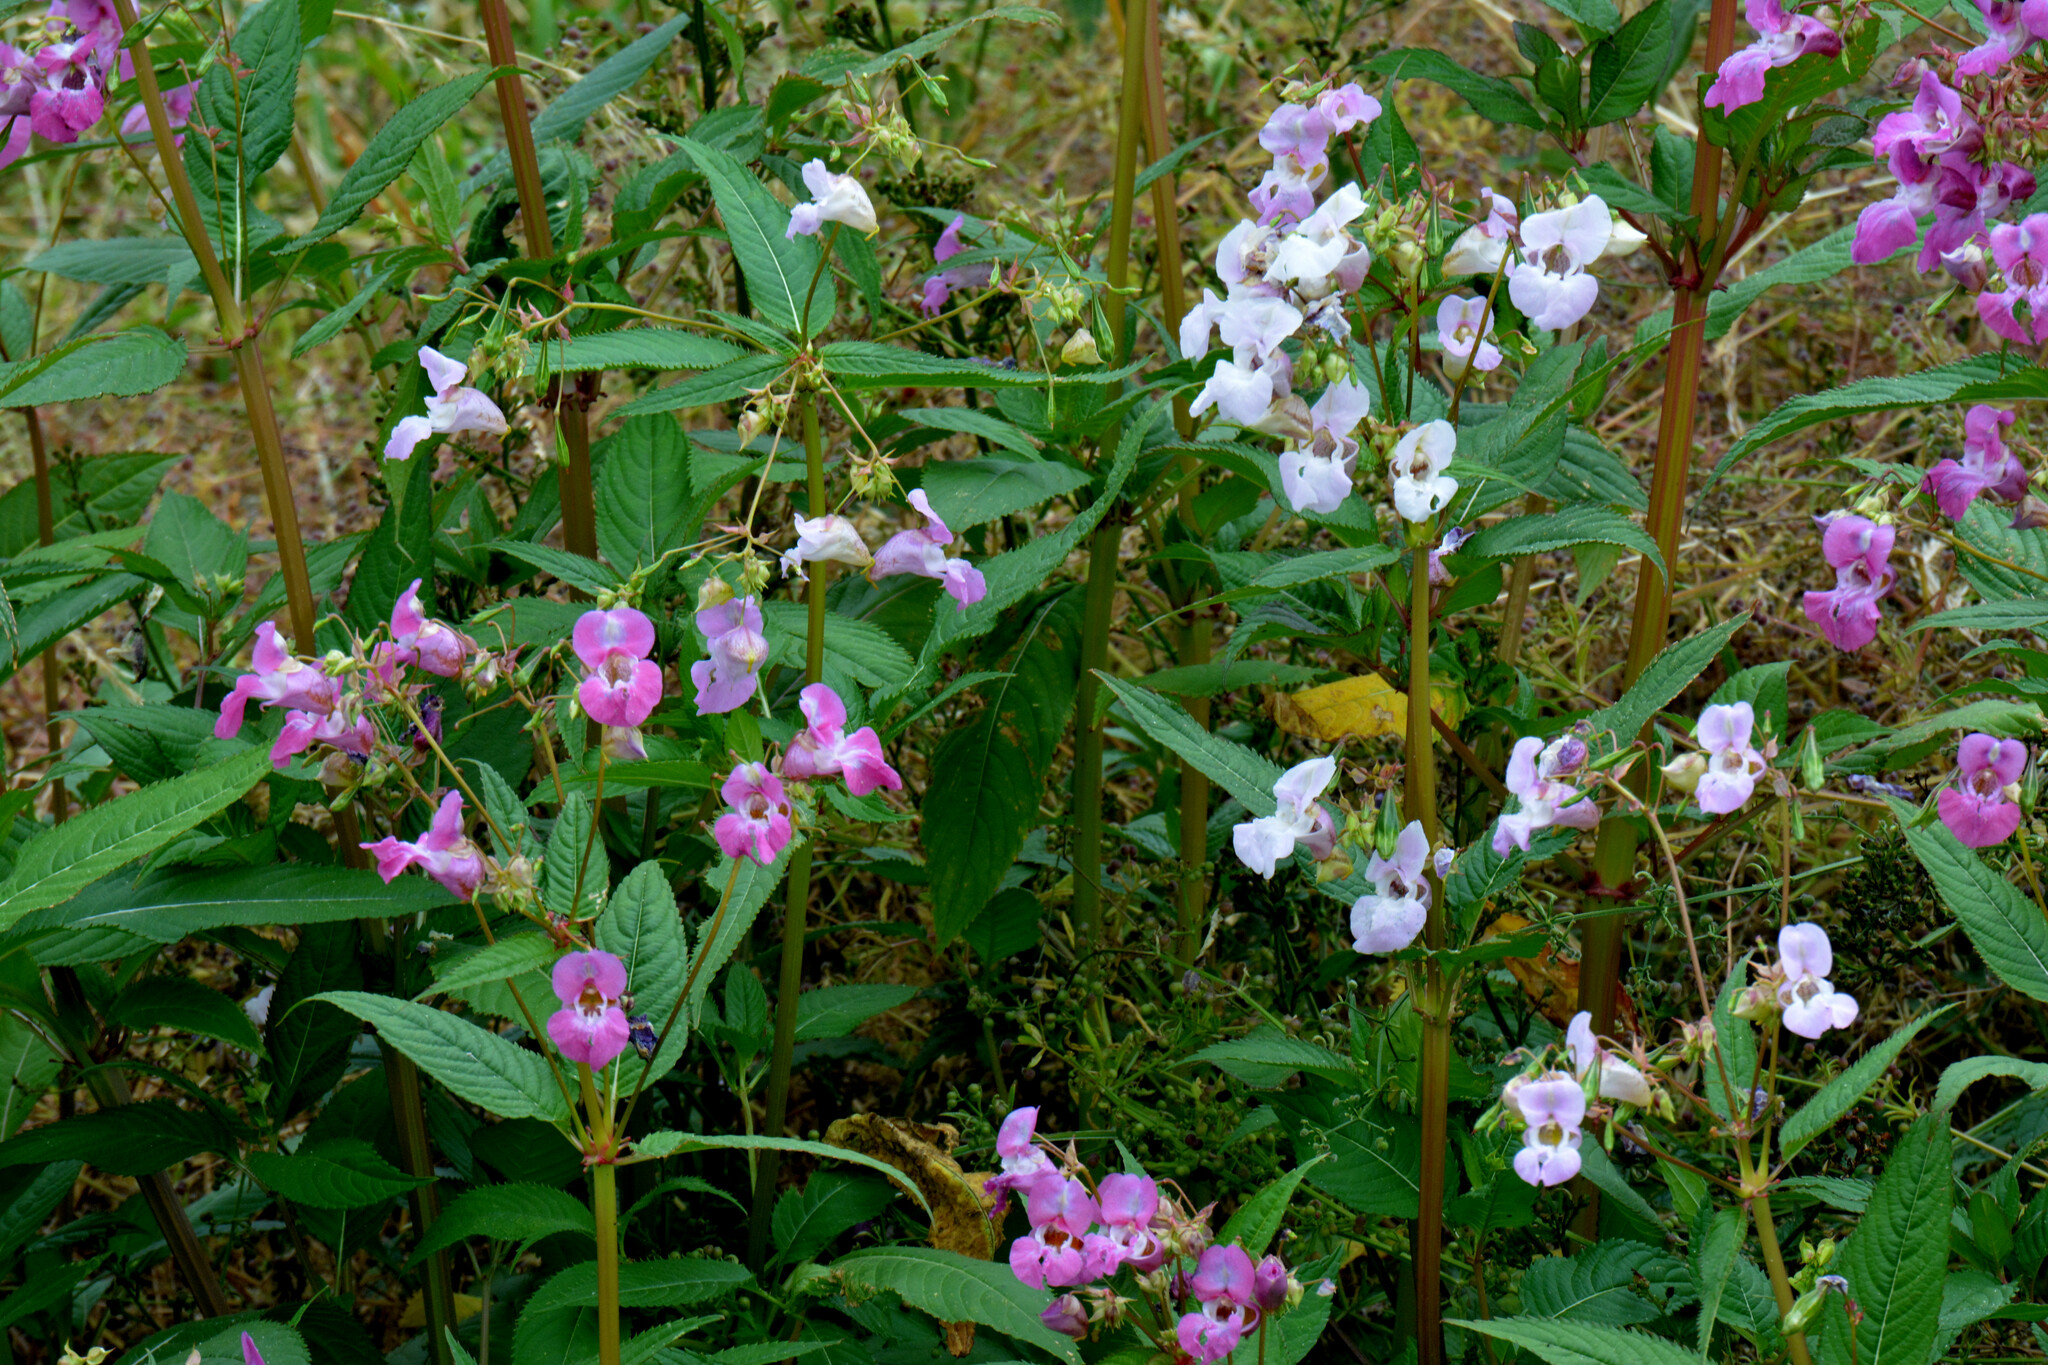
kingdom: Plantae
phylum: Tracheophyta
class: Magnoliopsida
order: Ericales
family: Balsaminaceae
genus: Impatiens
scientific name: Impatiens glandulifera
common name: Himalayan balsam
